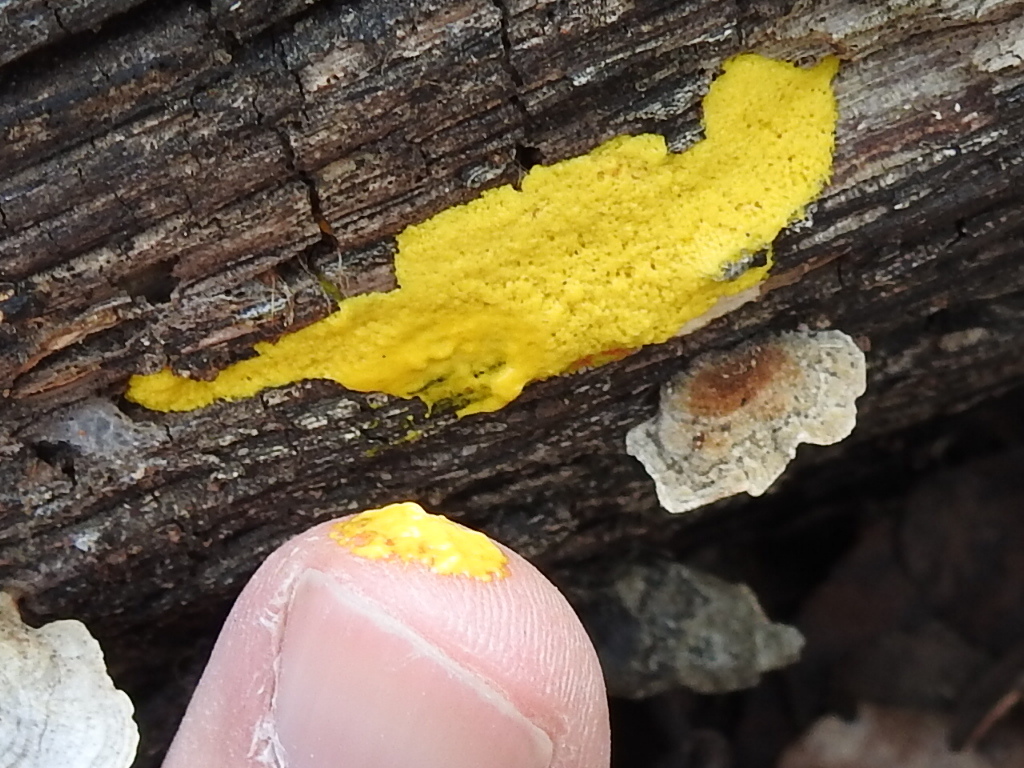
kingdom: Protozoa
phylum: Mycetozoa
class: Myxomycetes
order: Physarales
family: Physaraceae
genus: Fuligo
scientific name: Fuligo septica
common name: Dog vomit slime mold
